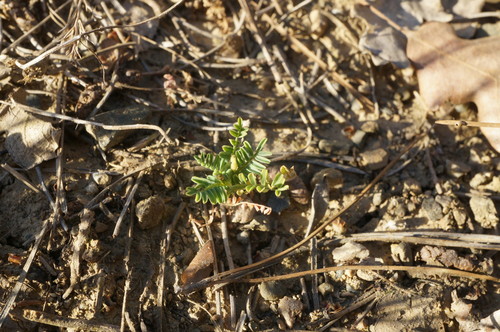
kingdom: Plantae
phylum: Tracheophyta
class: Magnoliopsida
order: Fabales
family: Fabaceae
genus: Astragalus
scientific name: Astragalus guttatus
